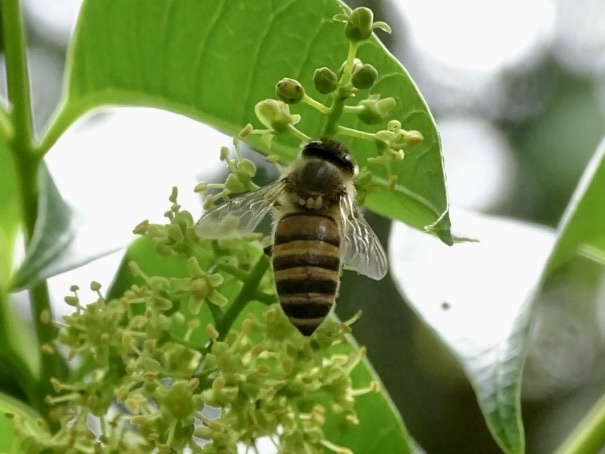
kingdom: Animalia
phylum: Arthropoda
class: Insecta
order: Hymenoptera
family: Apidae
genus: Apis
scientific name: Apis cerana
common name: Honey bee
